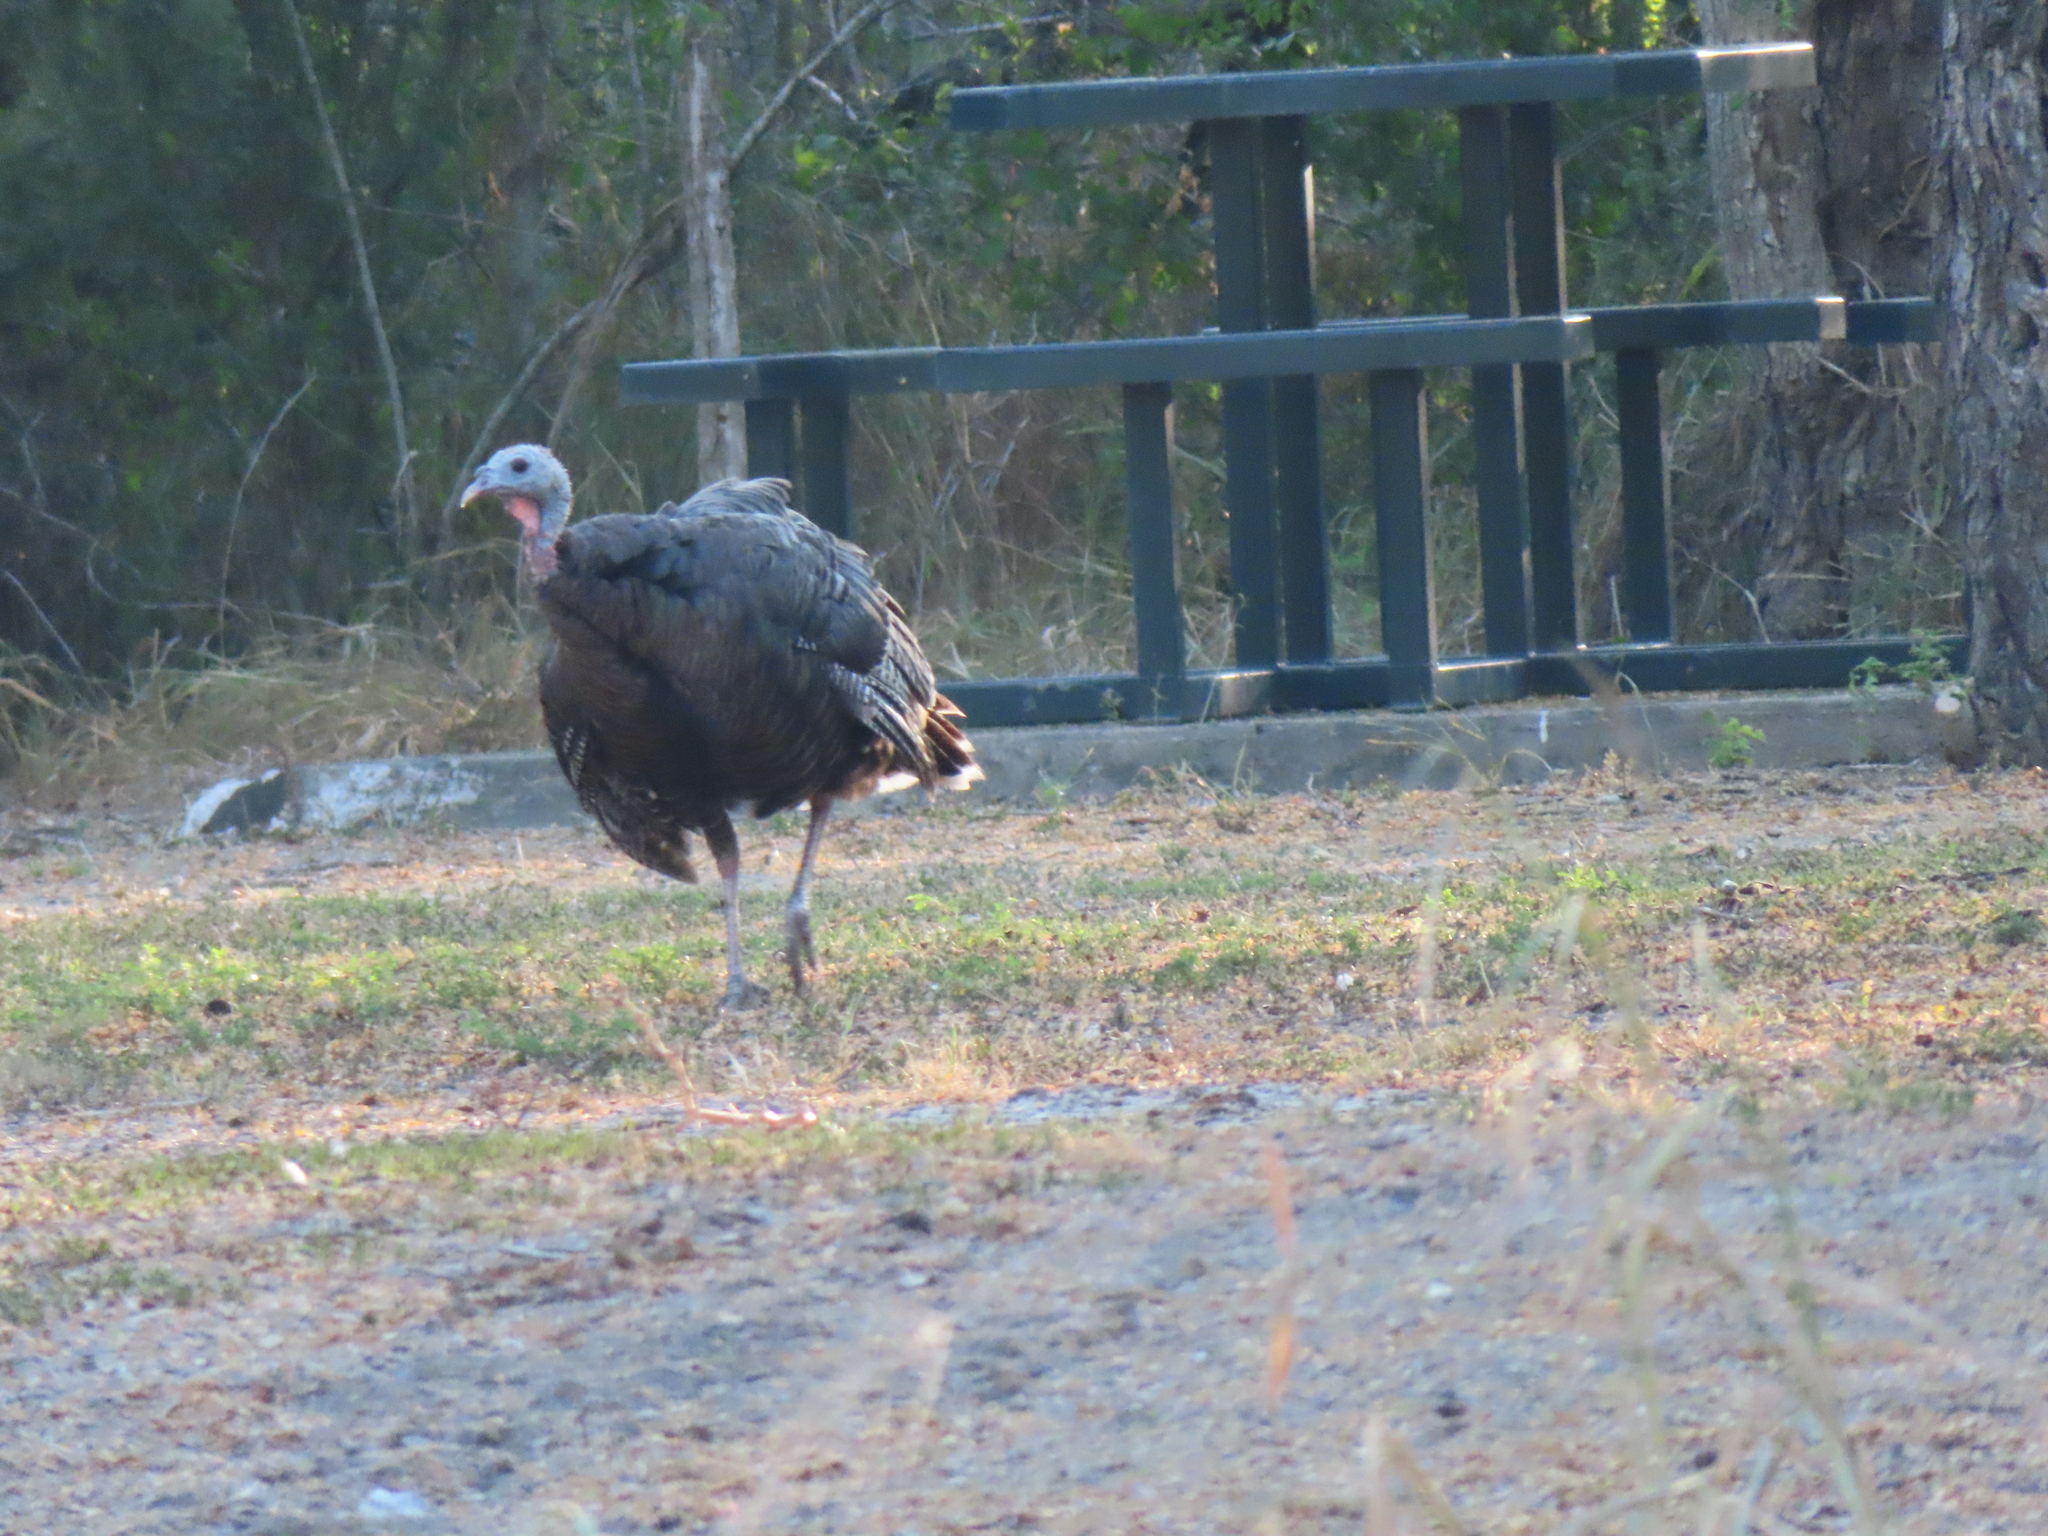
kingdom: Animalia
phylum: Chordata
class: Aves
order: Galliformes
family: Phasianidae
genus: Meleagris
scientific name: Meleagris gallopavo
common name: Wild turkey
